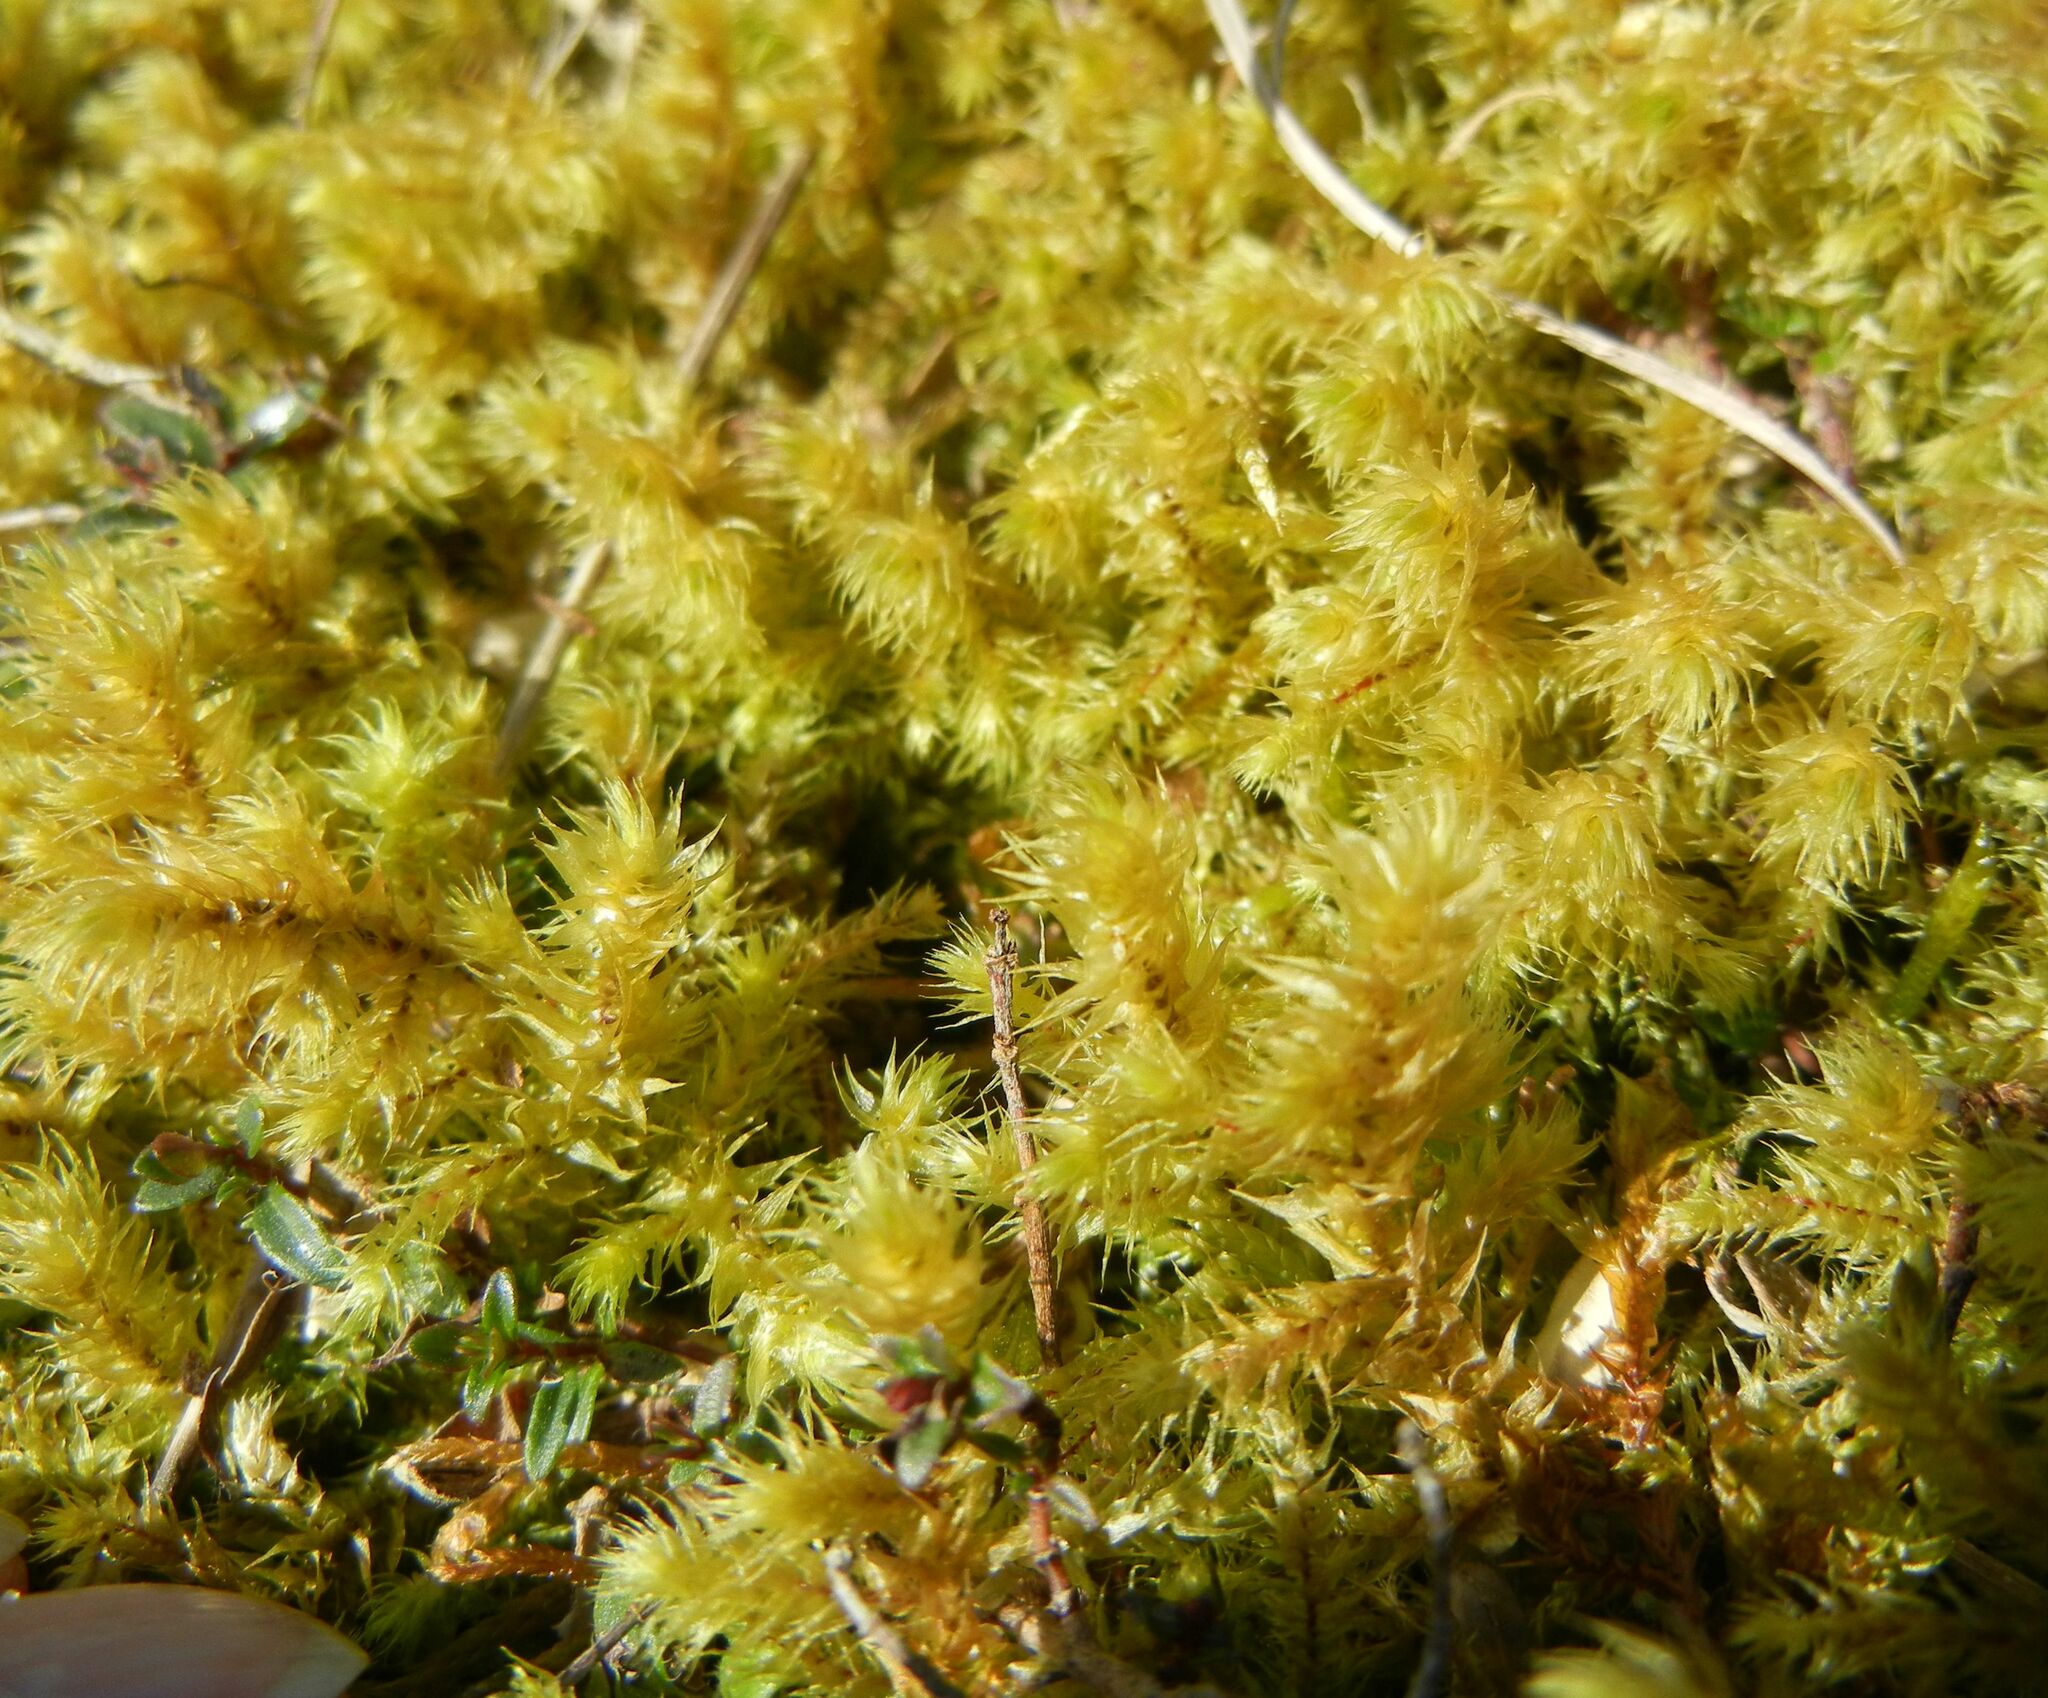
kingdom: Plantae
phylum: Bryophyta
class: Bryopsida
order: Hypnales
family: Hylocomiaceae
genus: Hylocomiadelphus
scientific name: Hylocomiadelphus triquetrus
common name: Rough goose neck moss
